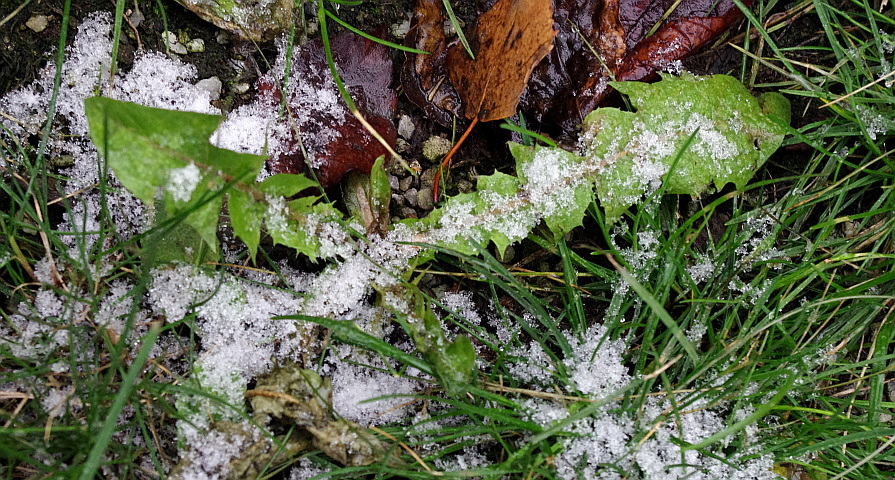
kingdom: Plantae
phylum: Tracheophyta
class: Magnoliopsida
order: Asterales
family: Asteraceae
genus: Taraxacum
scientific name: Taraxacum officinale
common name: Common dandelion
